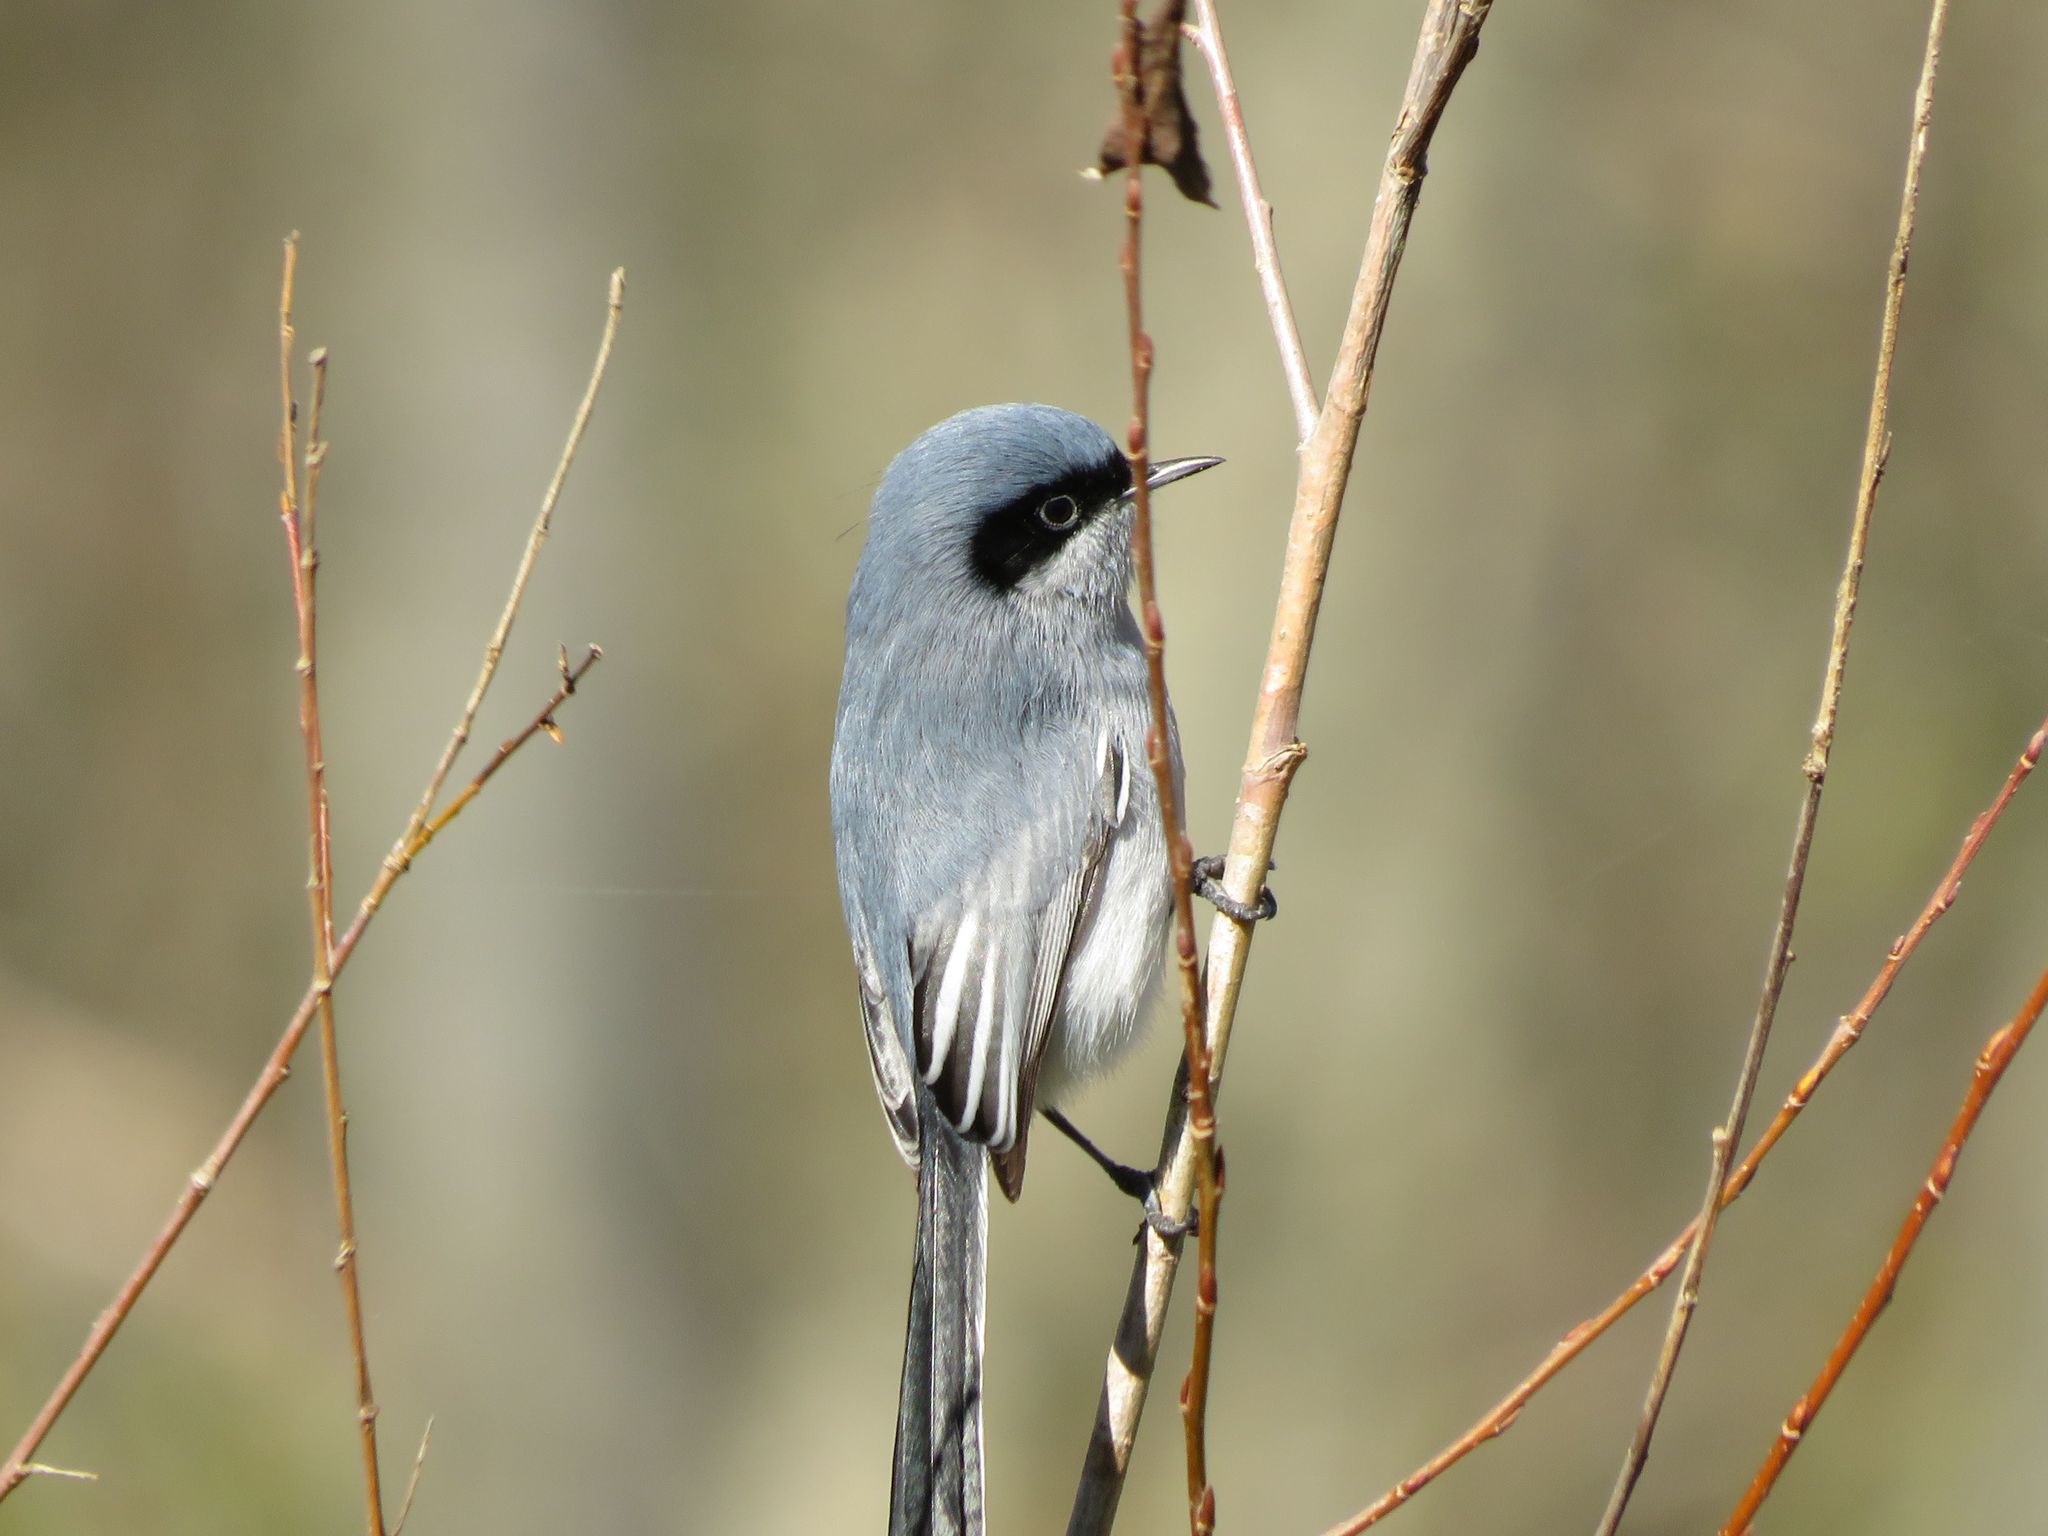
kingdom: Animalia
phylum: Chordata
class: Aves
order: Passeriformes
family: Polioptilidae
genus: Polioptila
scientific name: Polioptila dumicola
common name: Masked gnatcatcher
